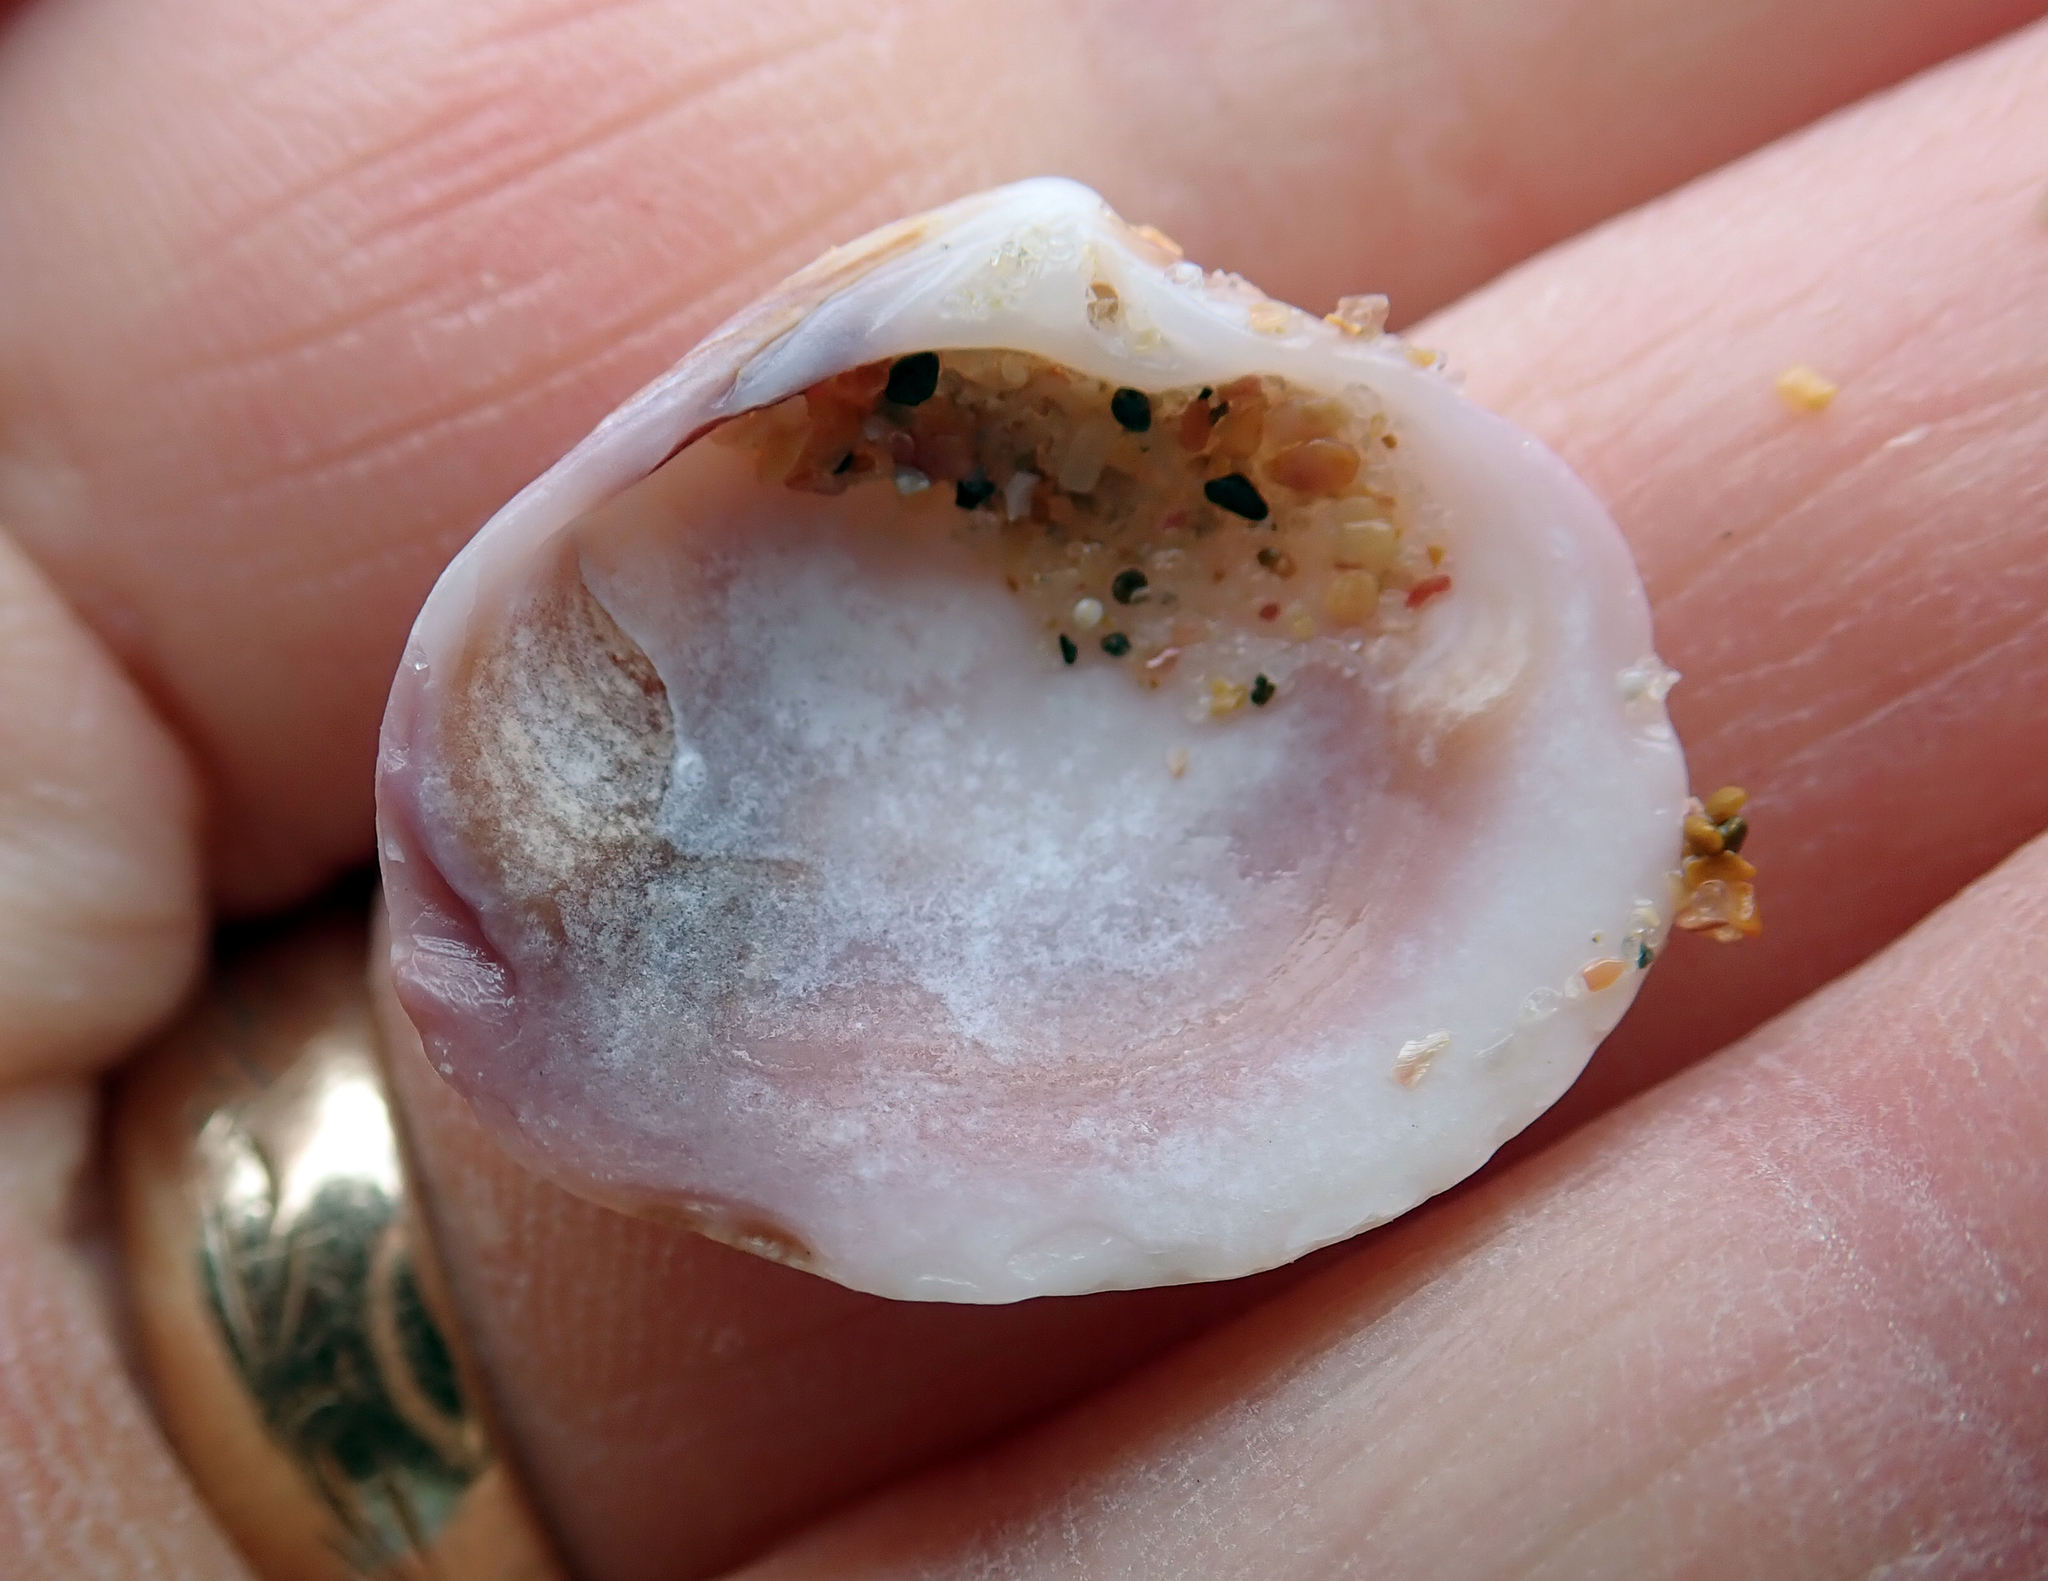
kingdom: Animalia
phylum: Mollusca
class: Bivalvia
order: Venerida
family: Veneridae
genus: Tawera
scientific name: Tawera spissa
